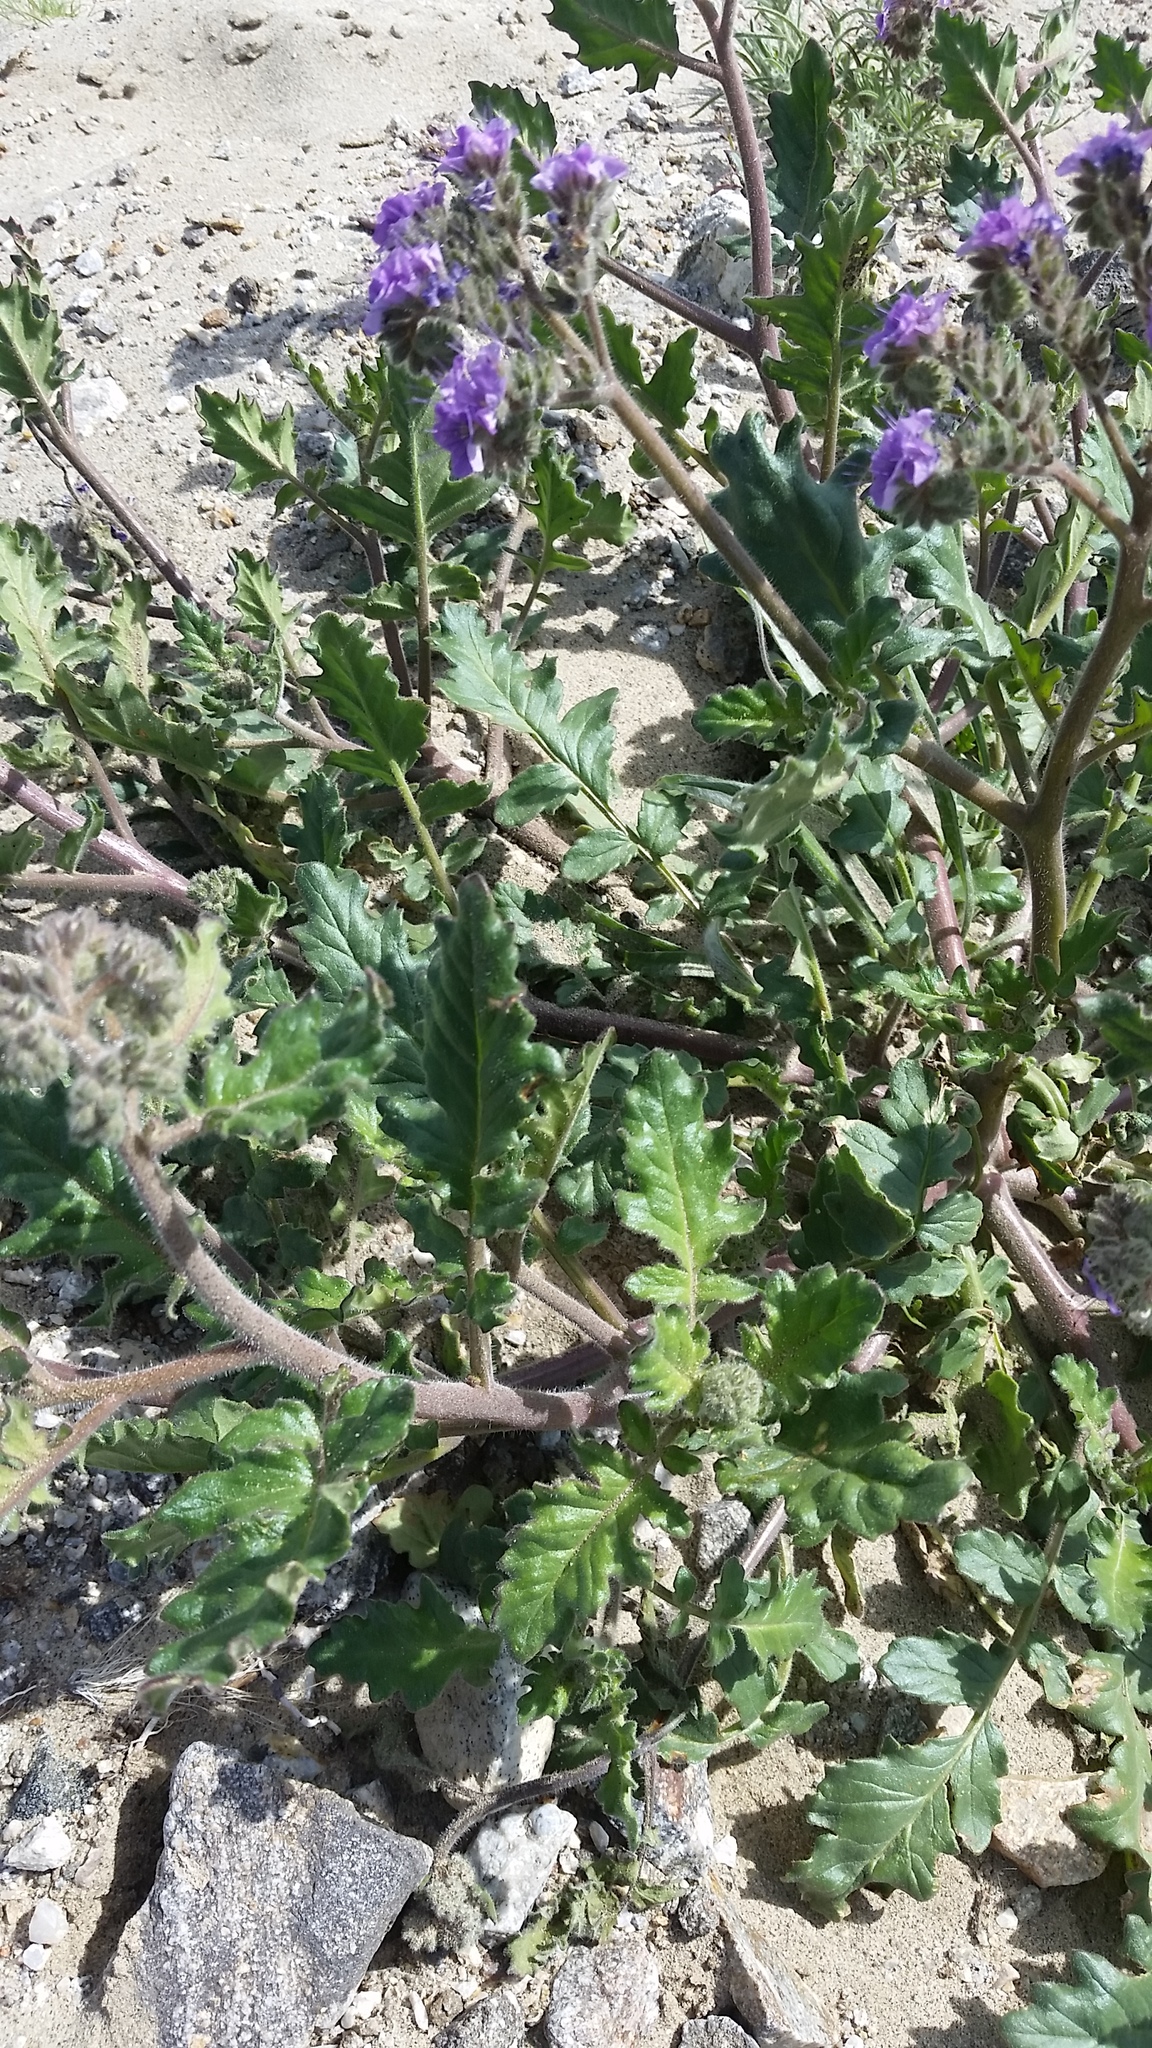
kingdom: Plantae
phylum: Tracheophyta
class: Magnoliopsida
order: Boraginales
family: Hydrophyllaceae
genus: Phacelia
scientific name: Phacelia crenulata
